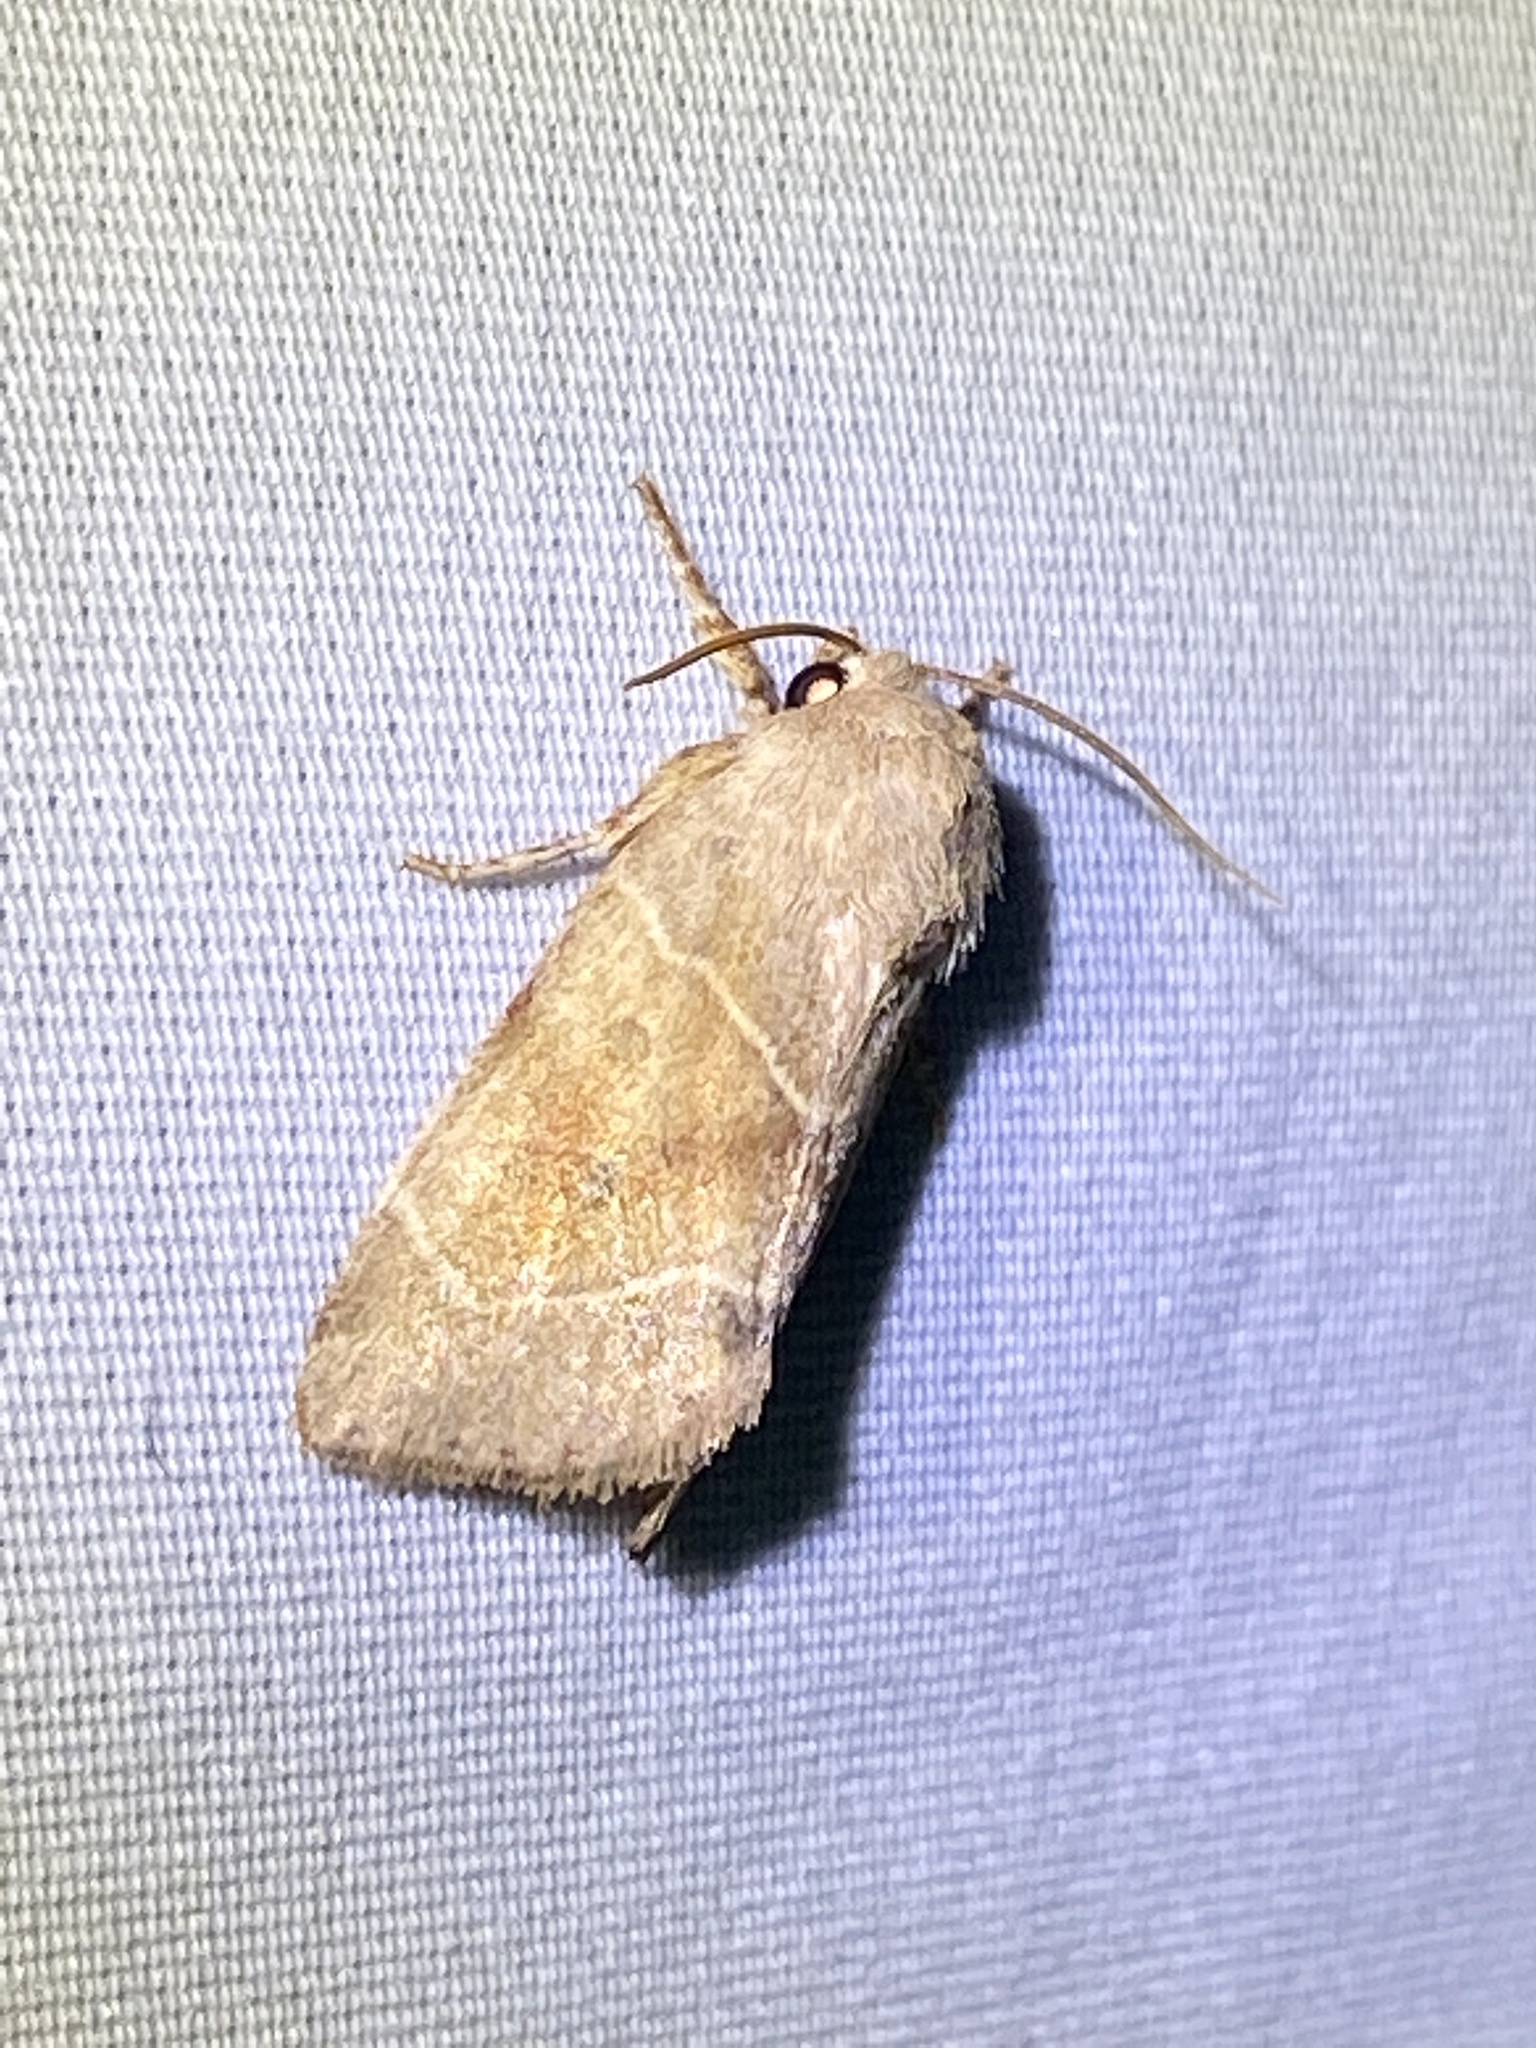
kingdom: Animalia
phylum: Arthropoda
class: Insecta
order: Lepidoptera
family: Noctuidae
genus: Cosmia
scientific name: Cosmia calami
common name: American dun-bar moth
